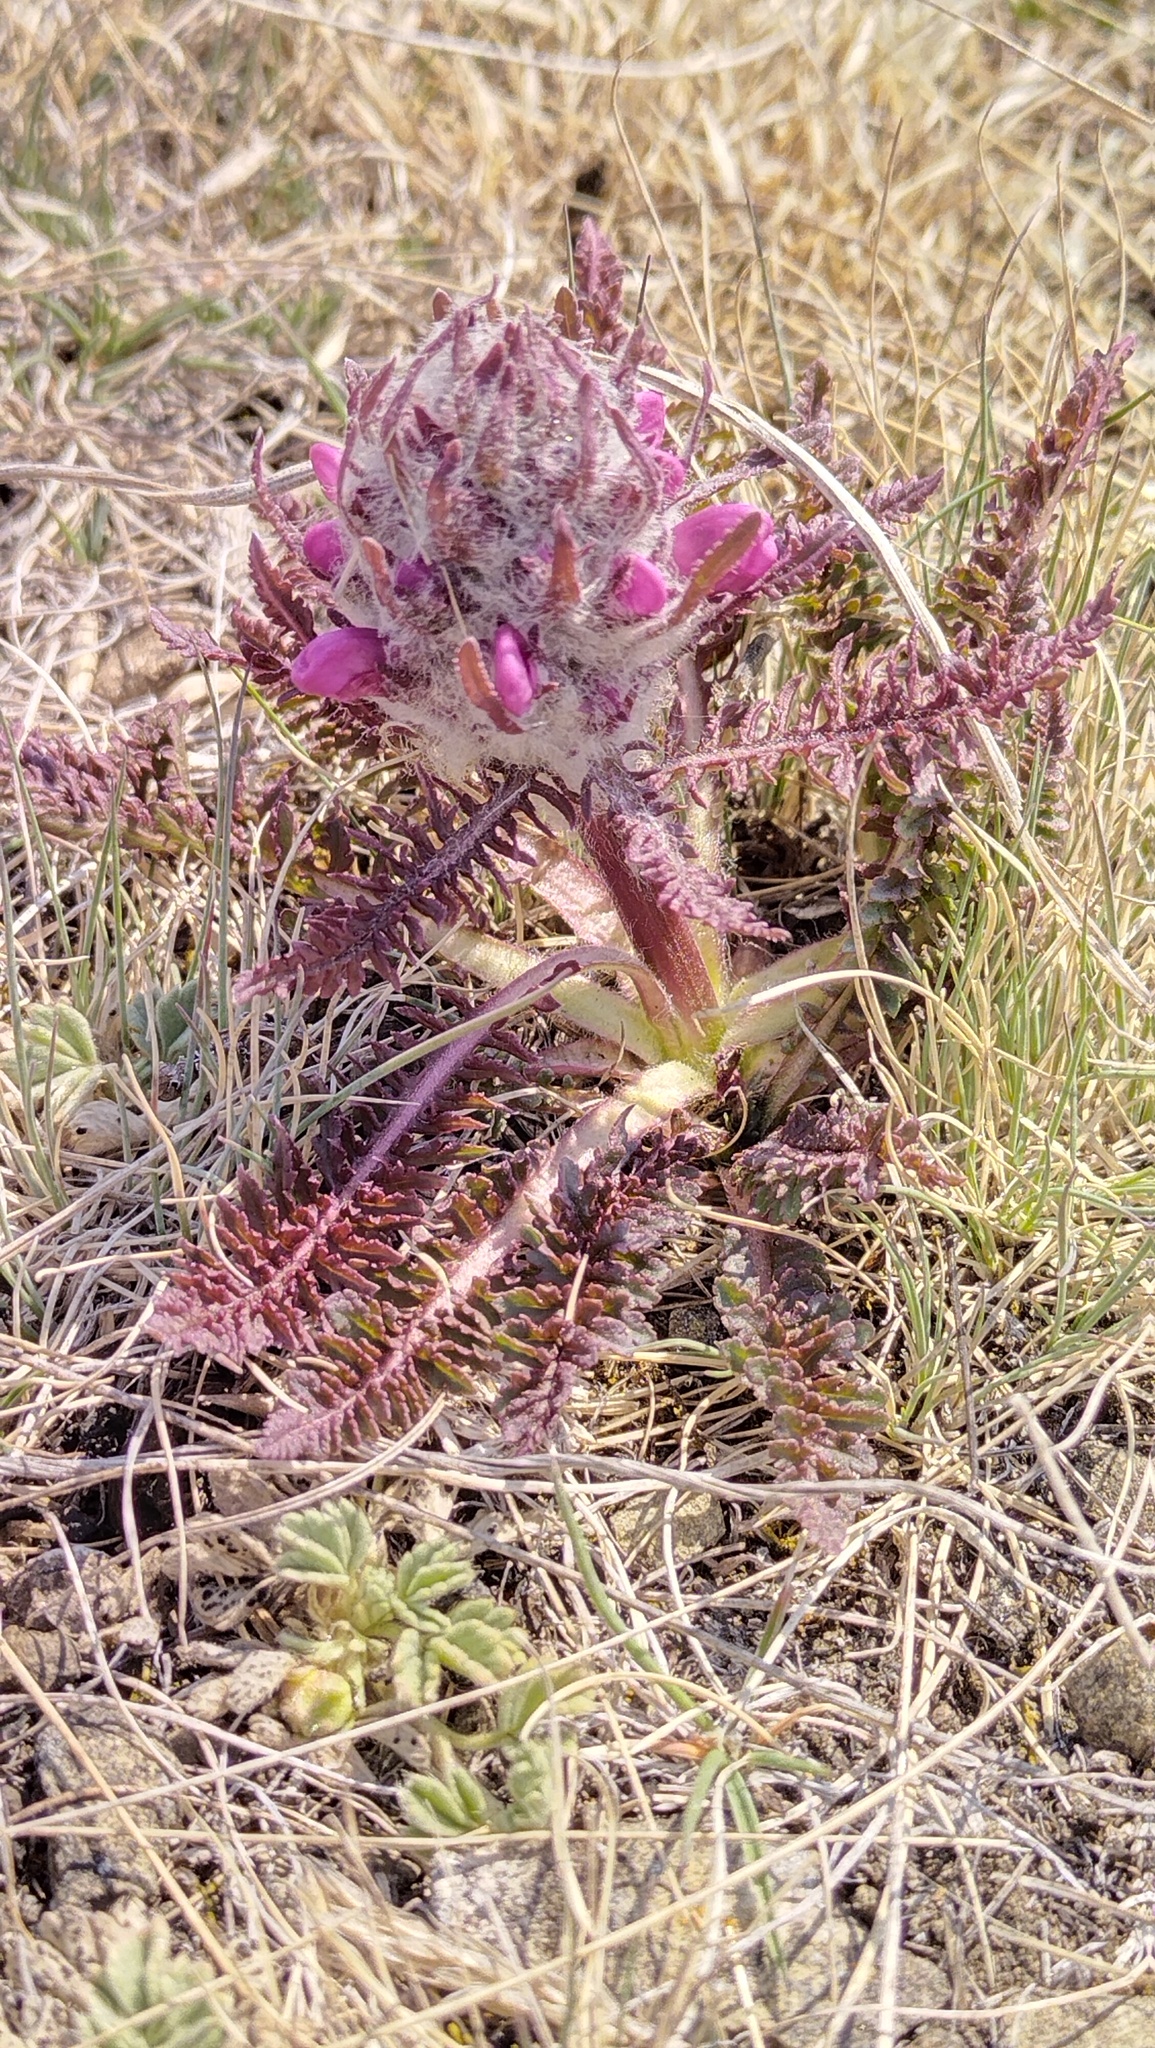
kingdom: Plantae
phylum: Tracheophyta
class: Magnoliopsida
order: Lamiales
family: Orobanchaceae
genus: Pedicularis
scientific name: Pedicularis dasystachys
